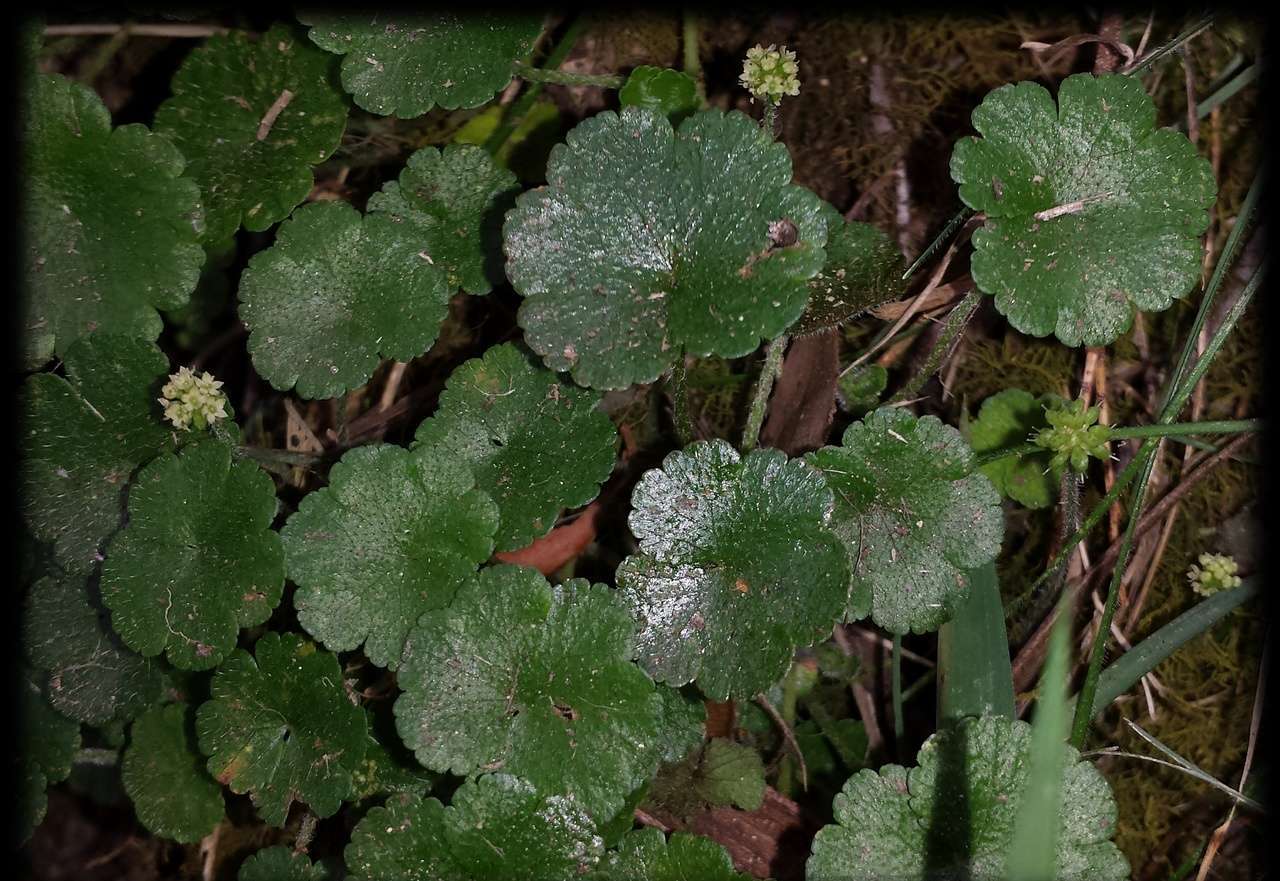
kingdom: Plantae
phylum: Tracheophyta
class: Magnoliopsida
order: Apiales
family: Araliaceae
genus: Hydrocotyle
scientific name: Hydrocotyle algida
